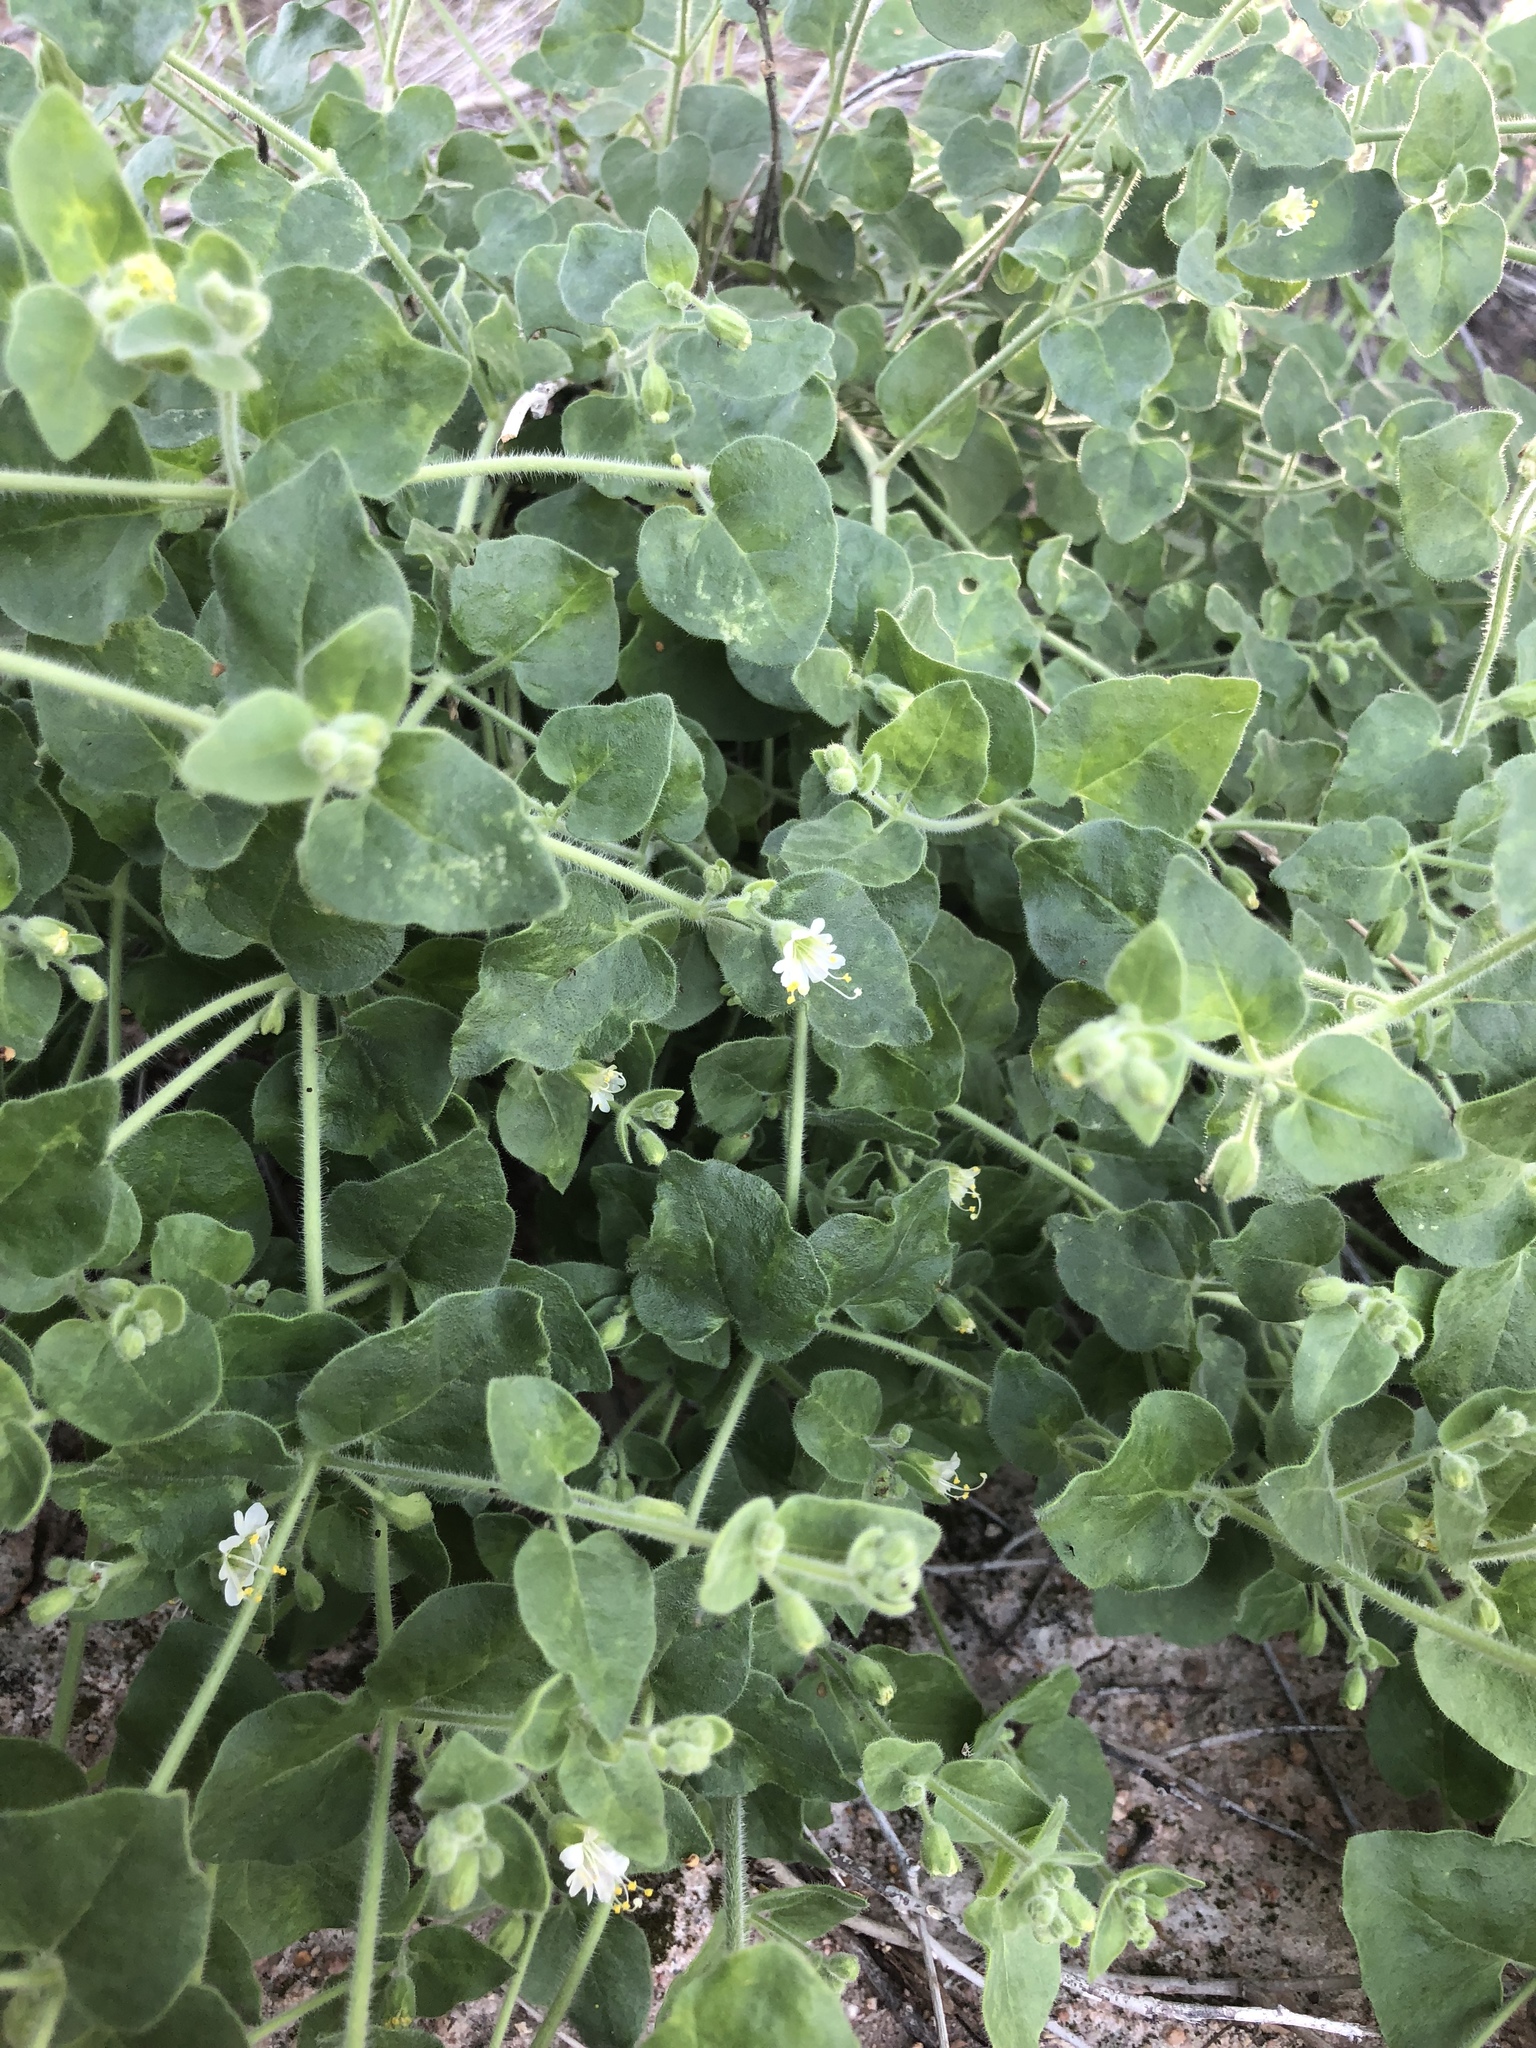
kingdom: Plantae
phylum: Tracheophyta
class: Magnoliopsida
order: Caryophyllales
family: Nyctaginaceae
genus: Mirabilis
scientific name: Mirabilis laevis
